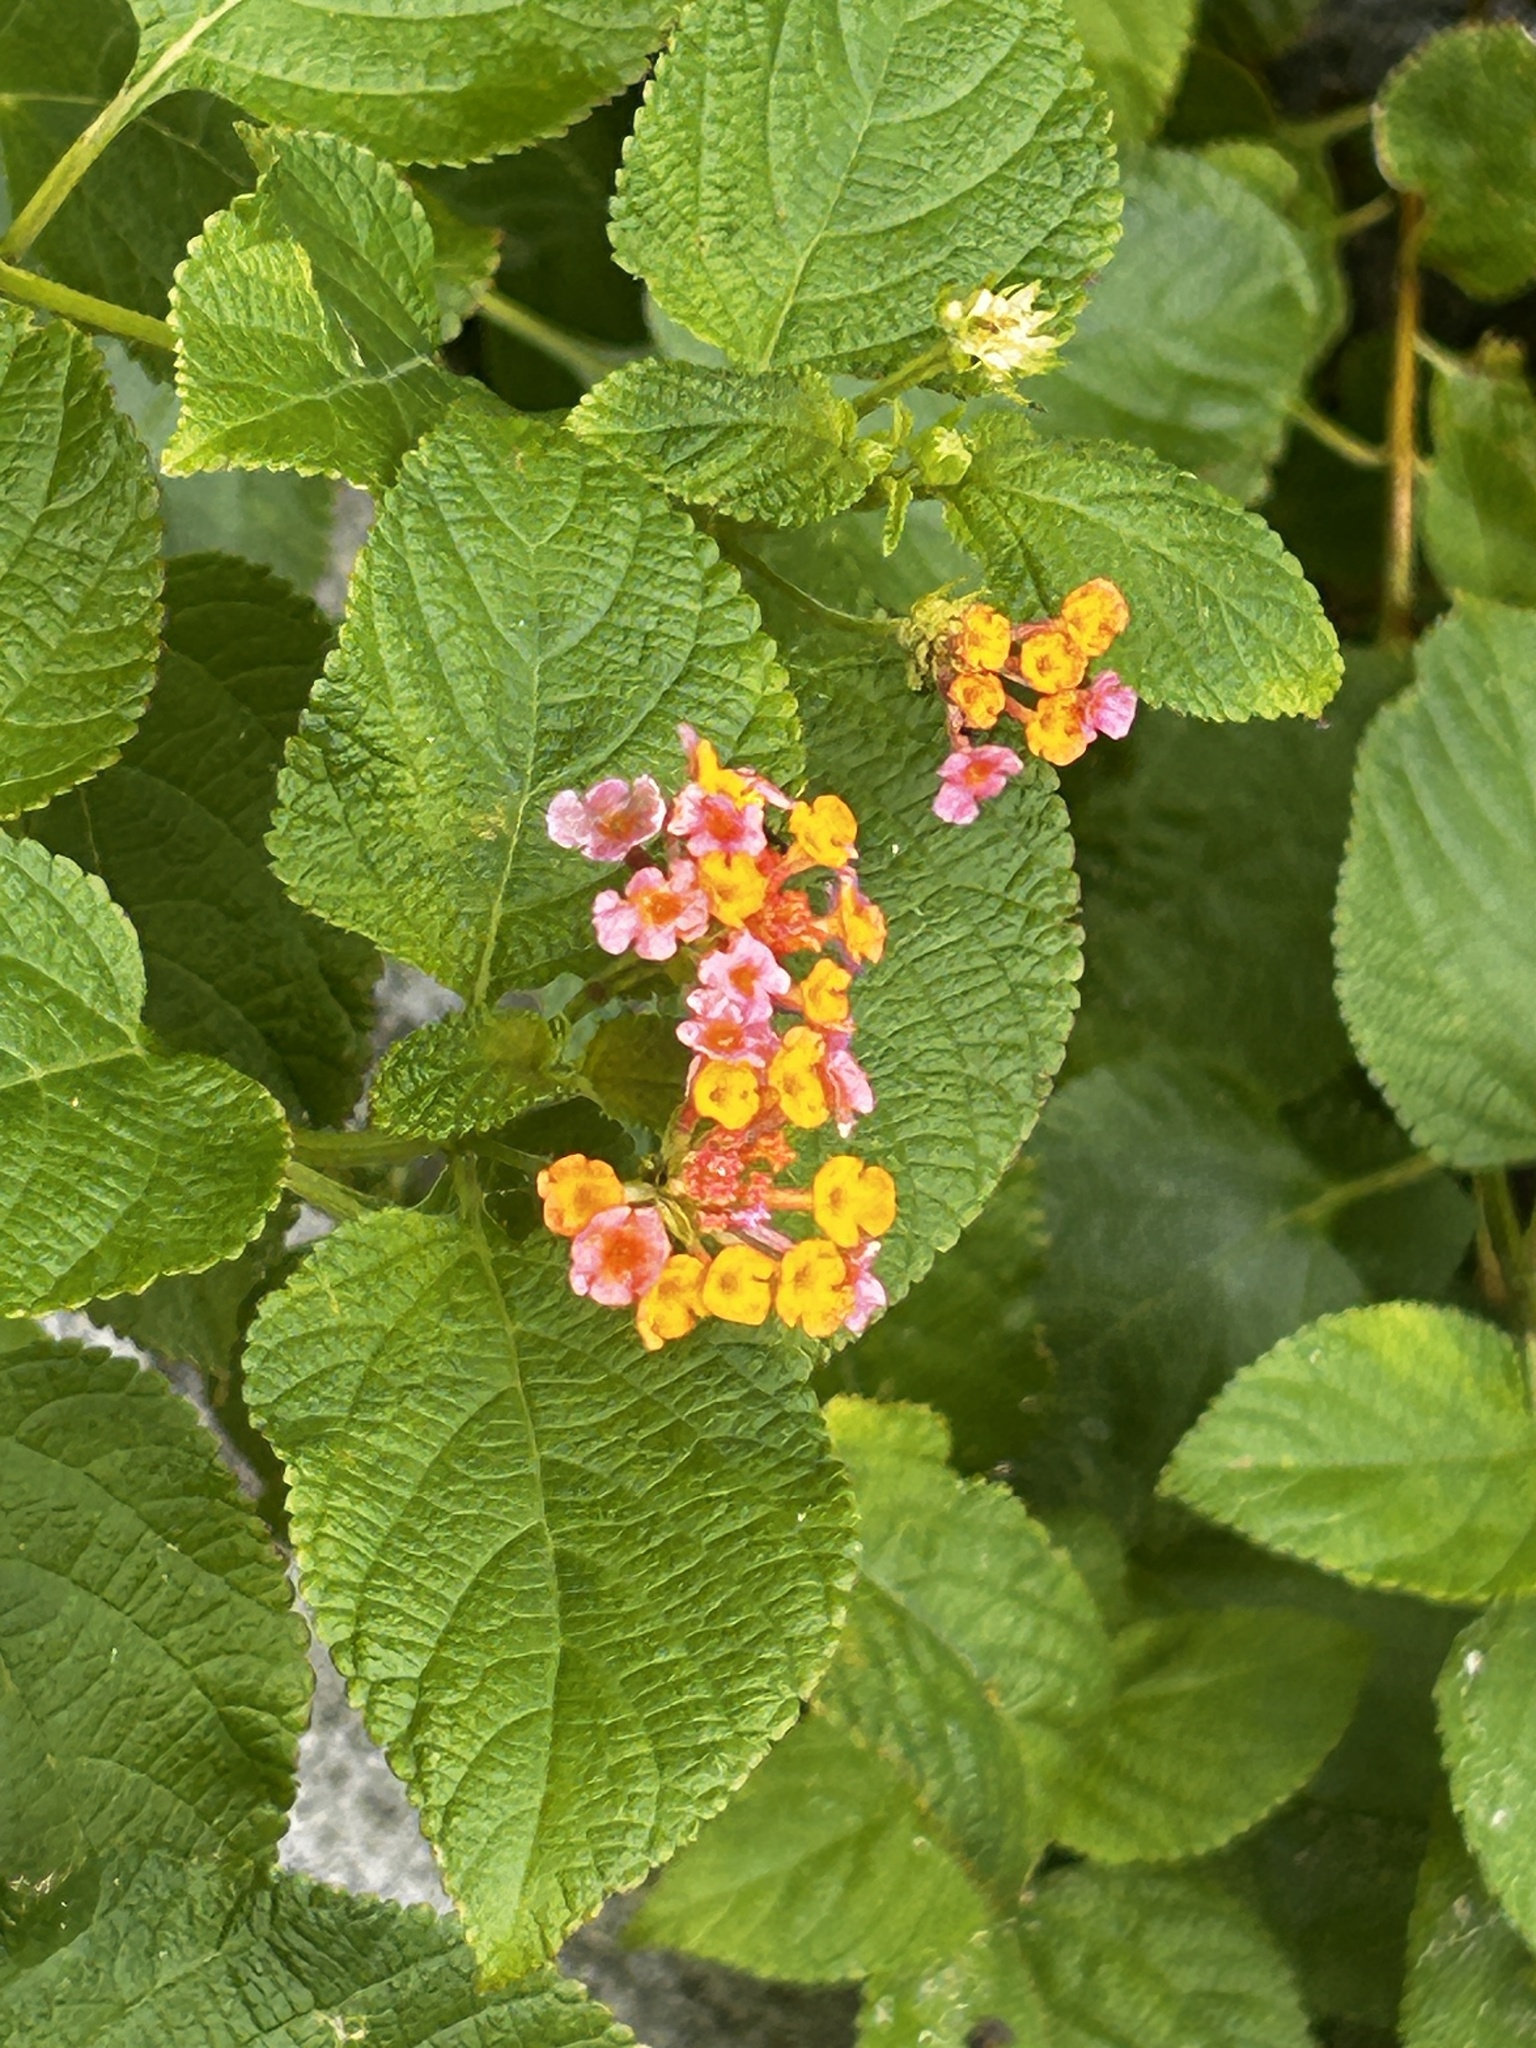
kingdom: Plantae
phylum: Tracheophyta
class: Magnoliopsida
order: Lamiales
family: Verbenaceae
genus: Lantana
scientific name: Lantana camara
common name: Lantana
